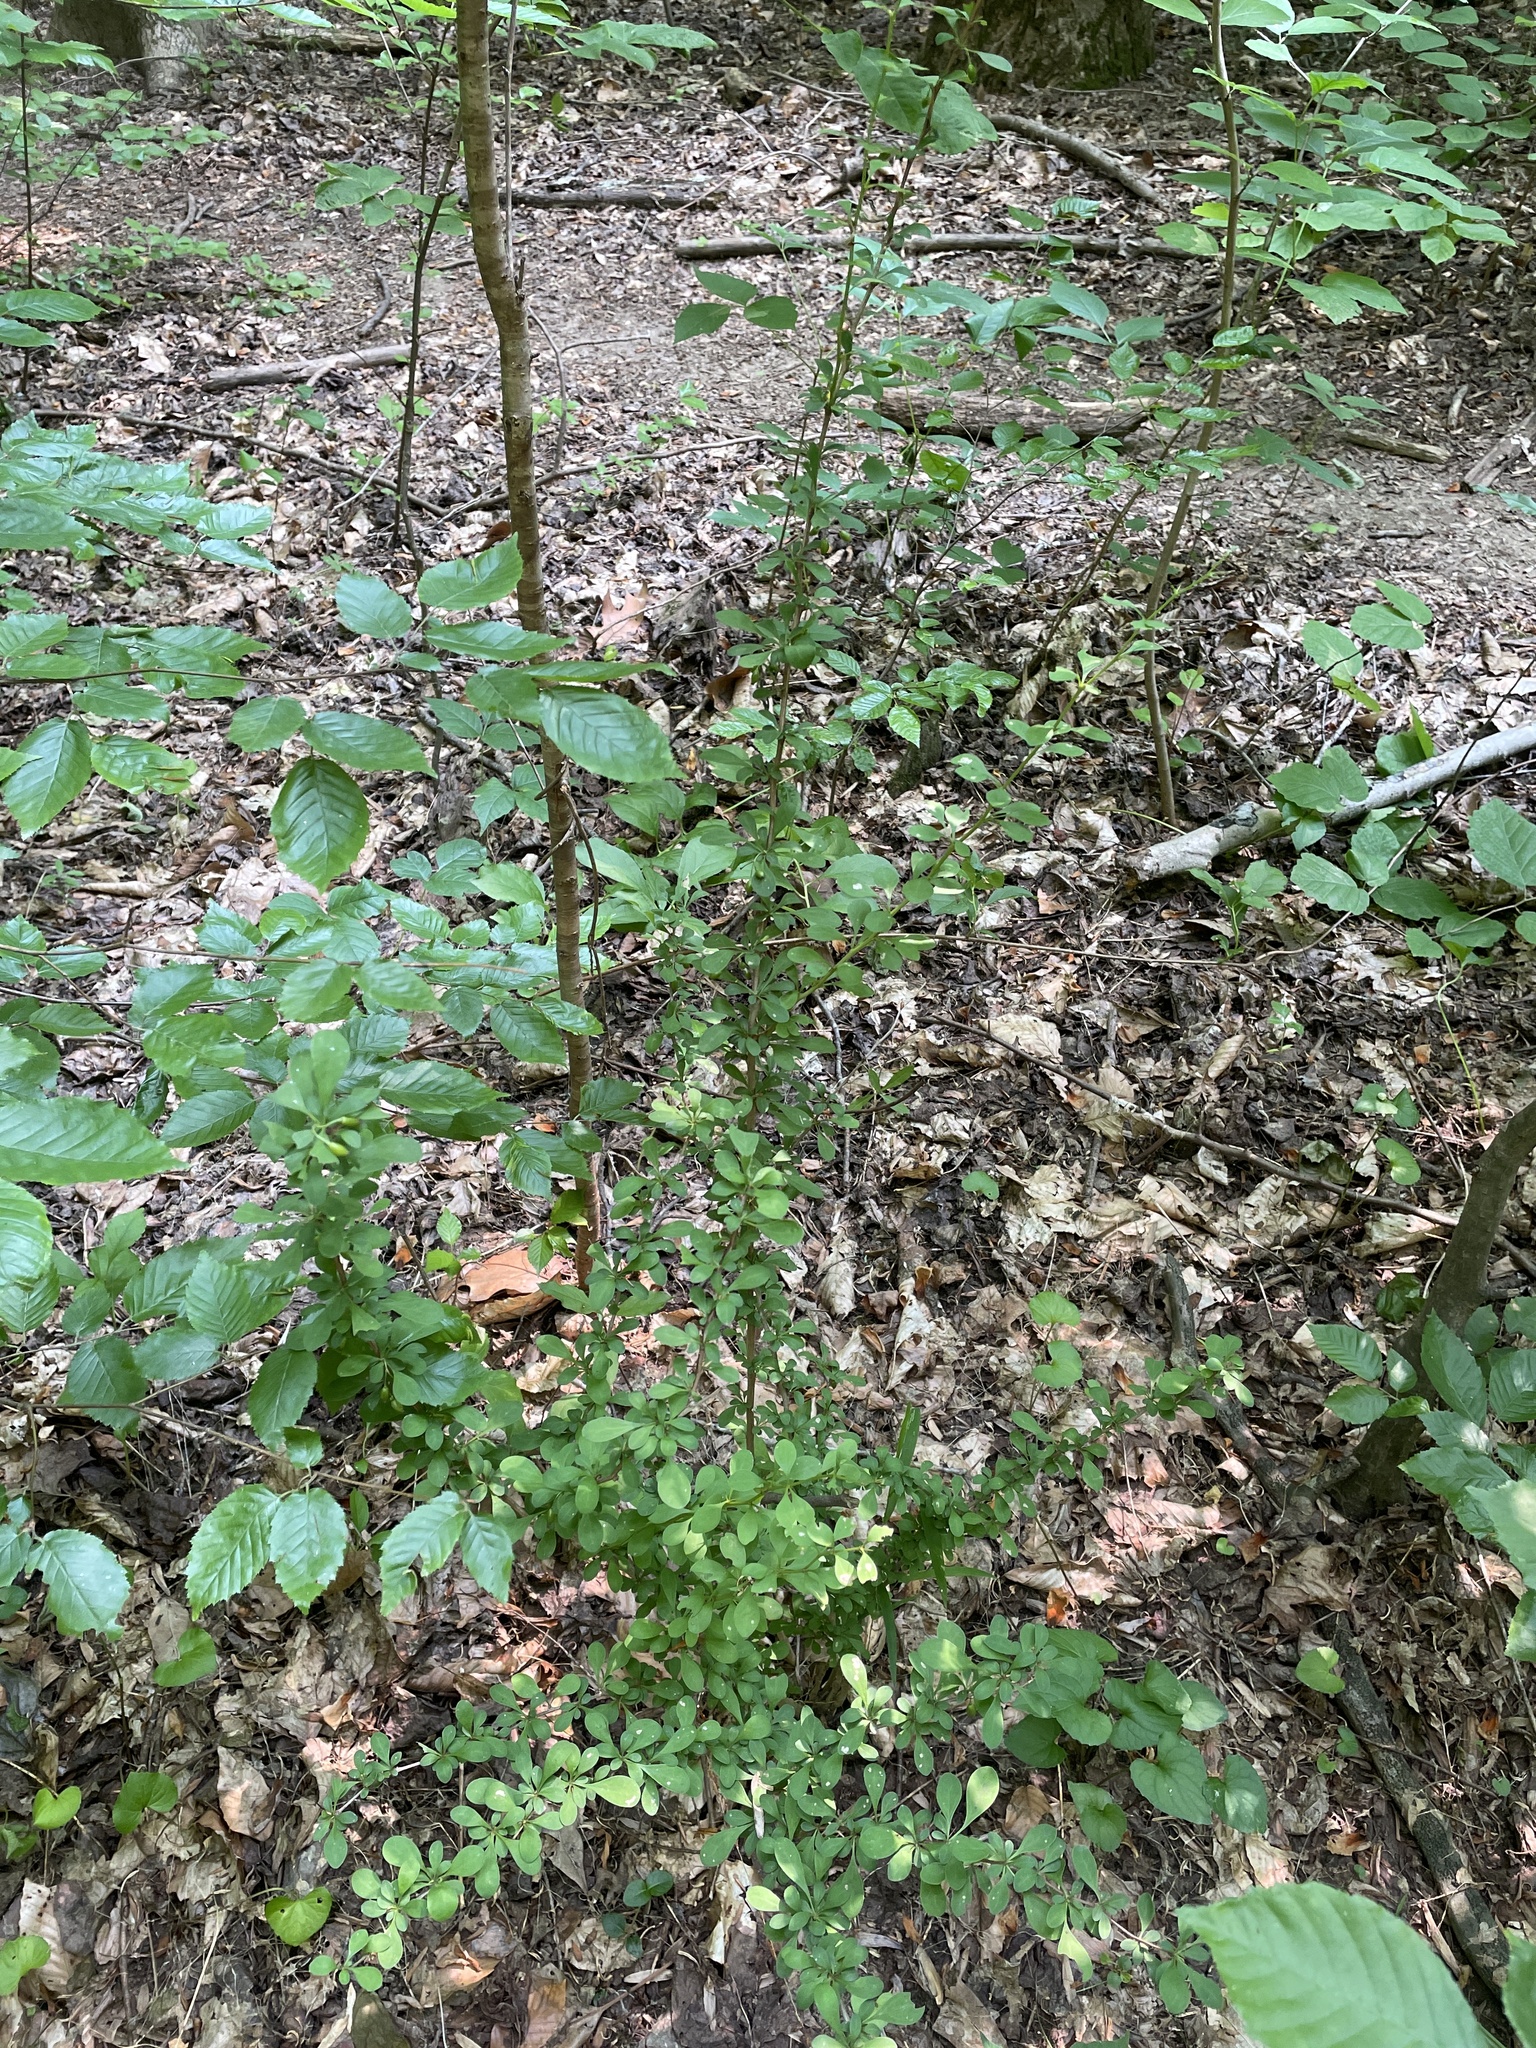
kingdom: Plantae
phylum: Tracheophyta
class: Magnoliopsida
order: Ranunculales
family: Berberidaceae
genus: Berberis
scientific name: Berberis thunbergii
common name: Japanese barberry
